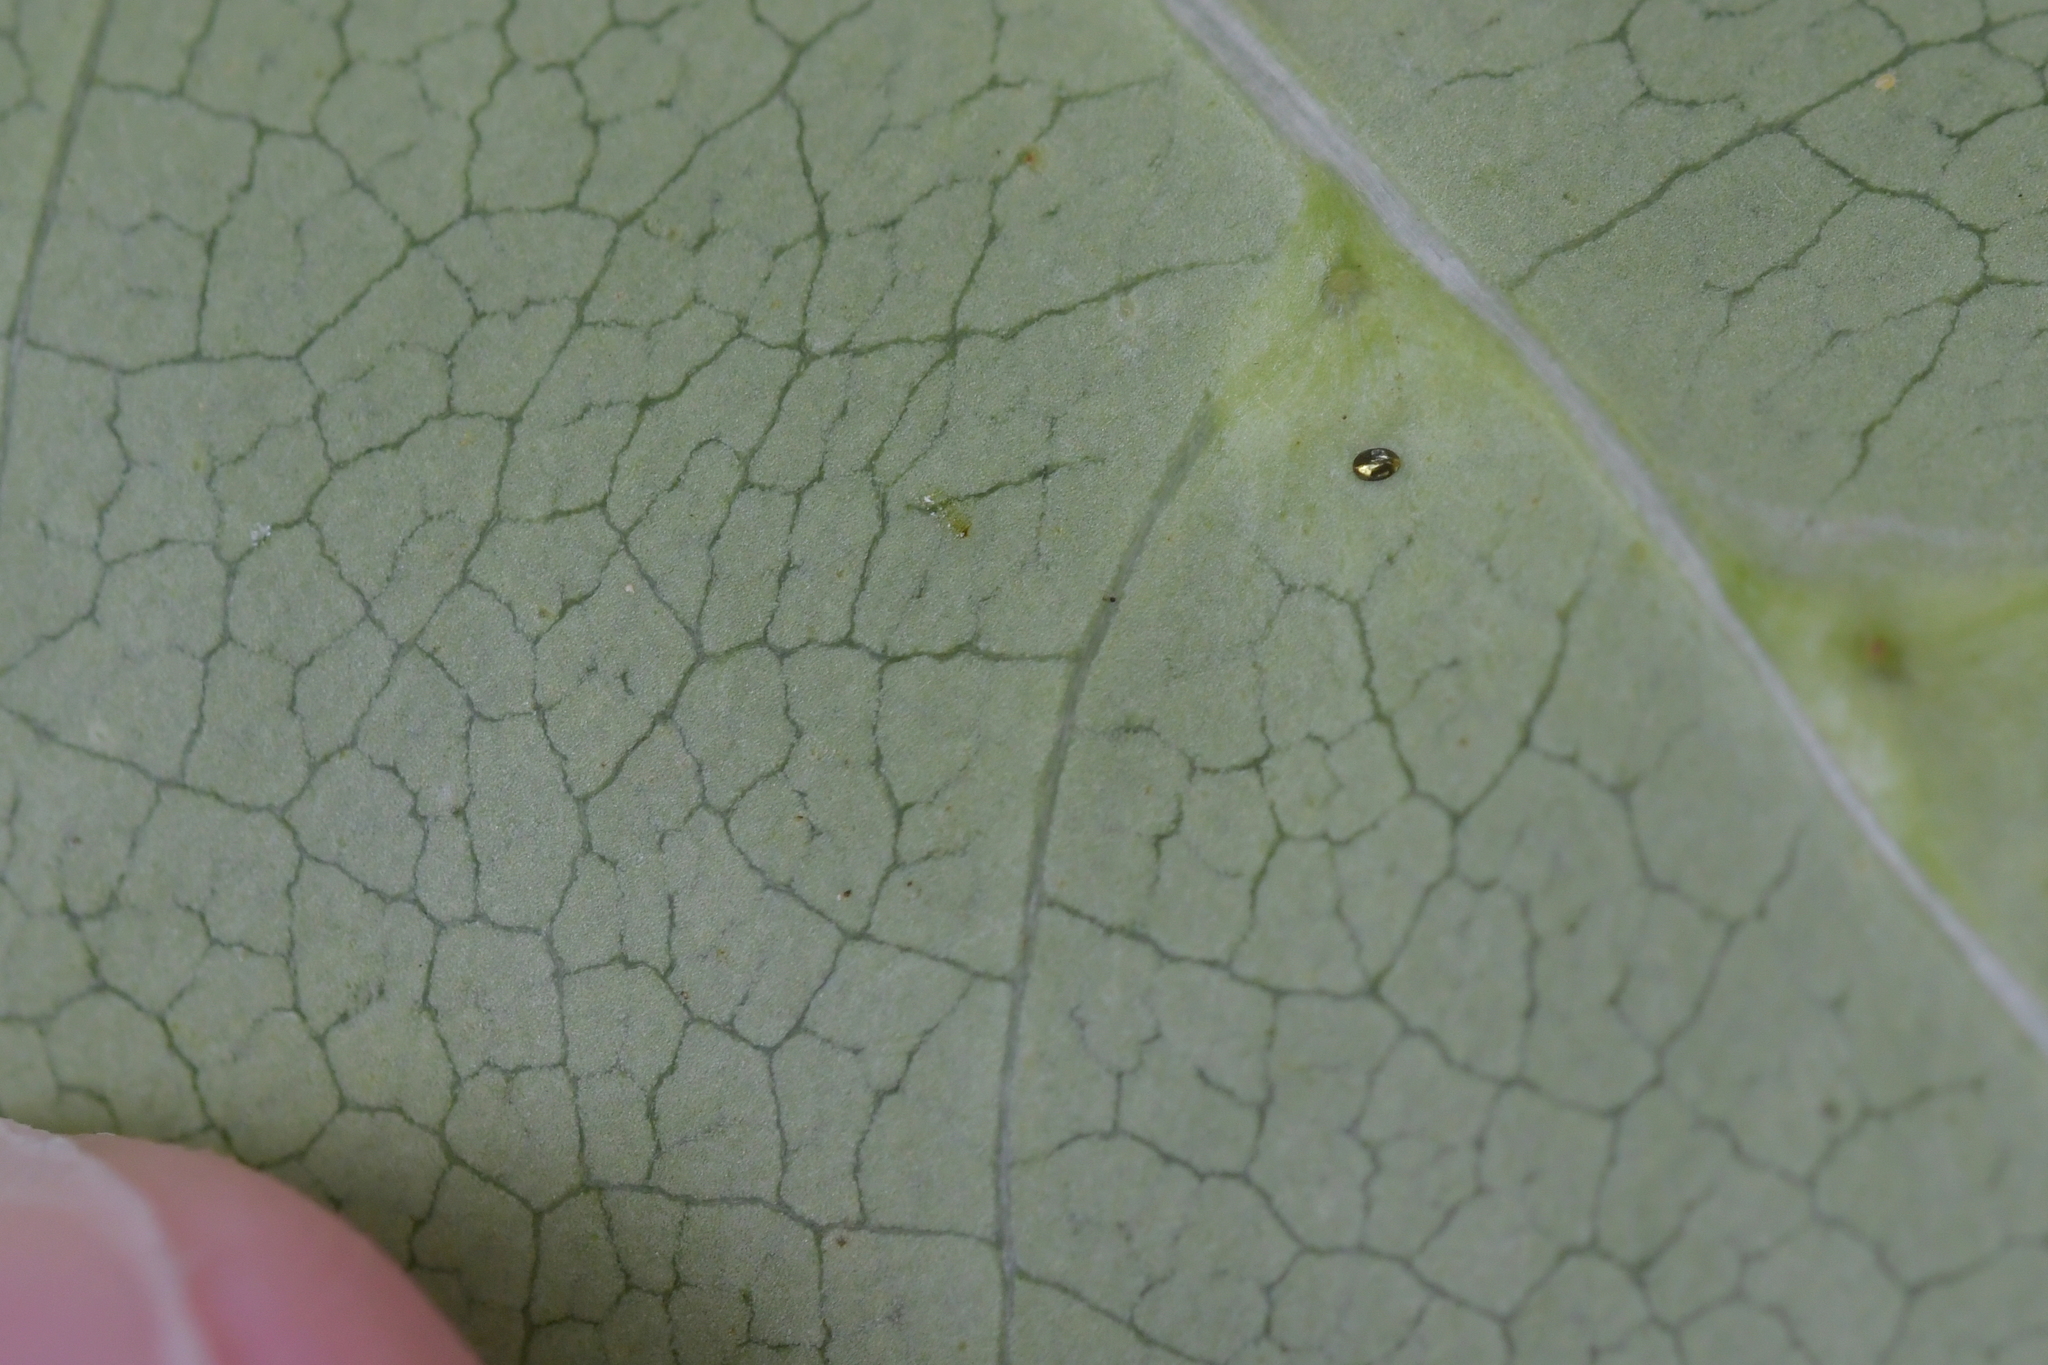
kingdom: Animalia
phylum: Arthropoda
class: Arachnida
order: Trombidiformes
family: Eriophyidae
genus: Acalitus
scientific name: Acalitus intertextus
